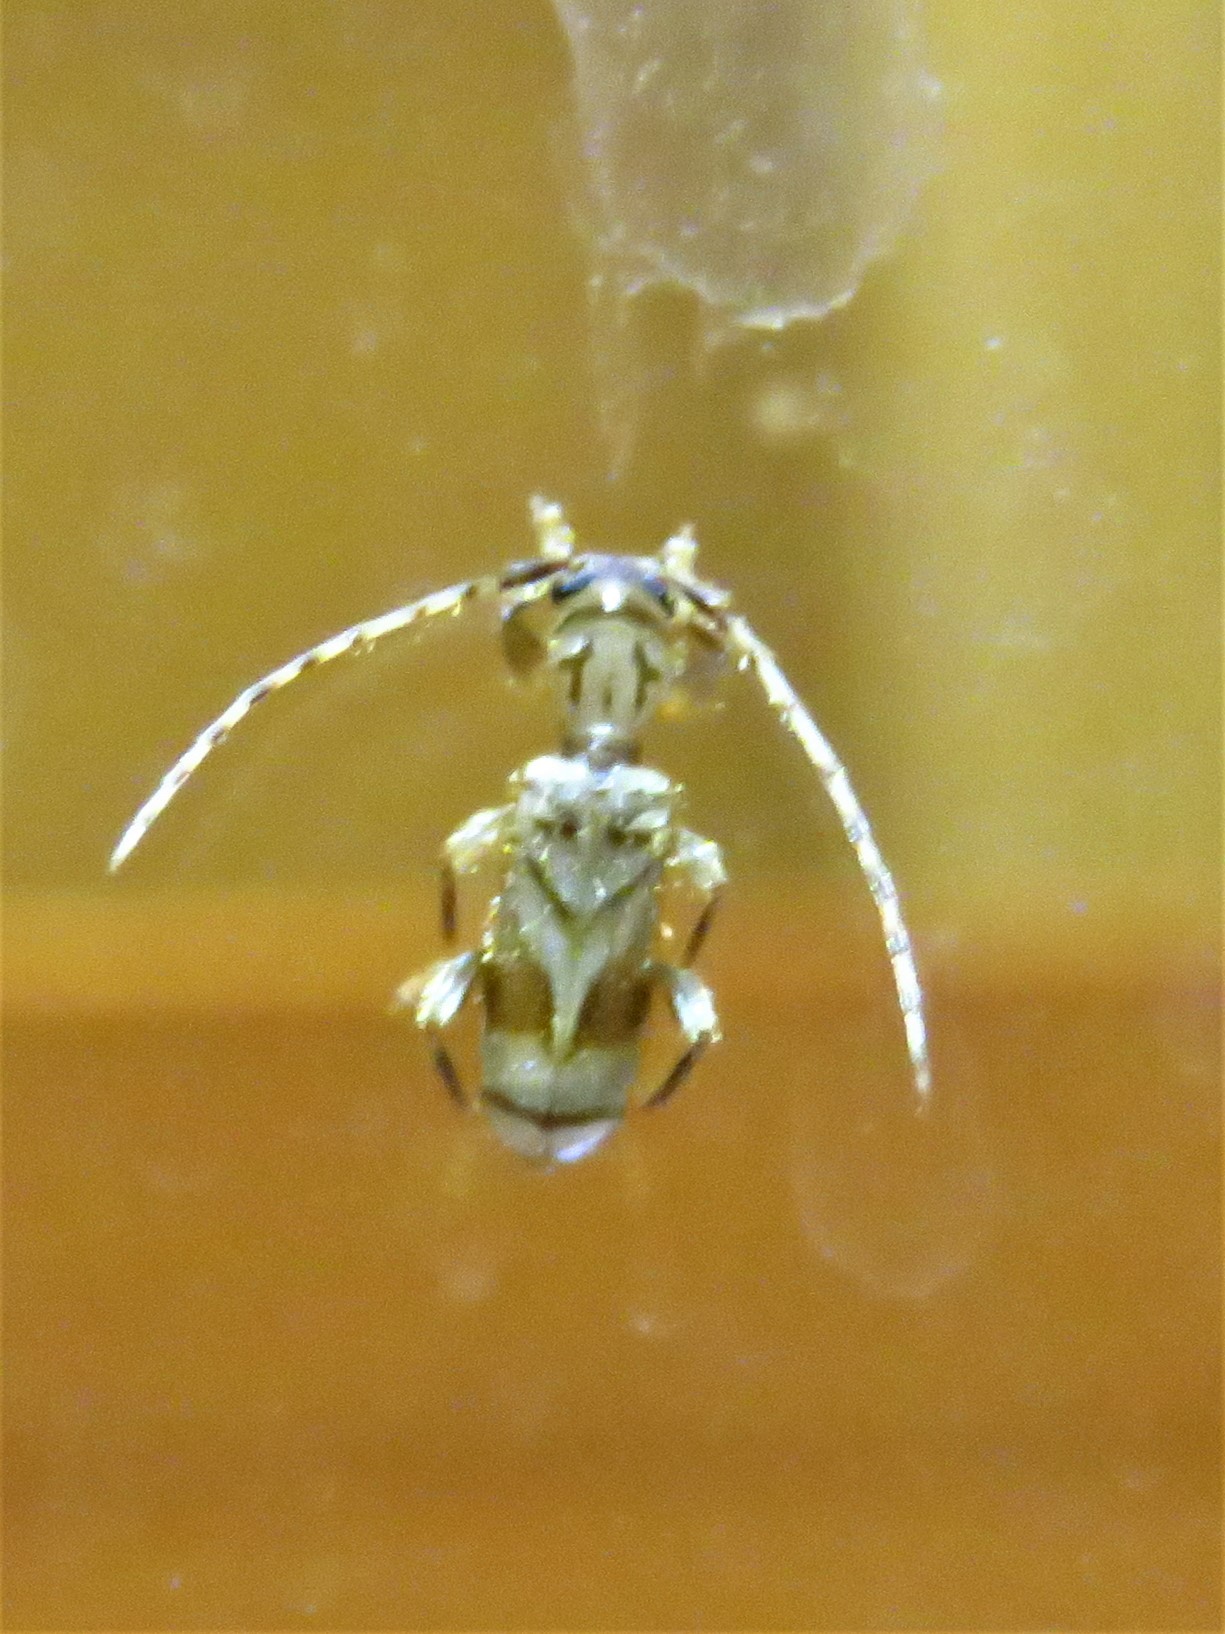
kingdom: Animalia
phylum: Arthropoda
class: Insecta
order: Coleoptera
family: Cerambycidae
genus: Obrium
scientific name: Obrium maculatum
